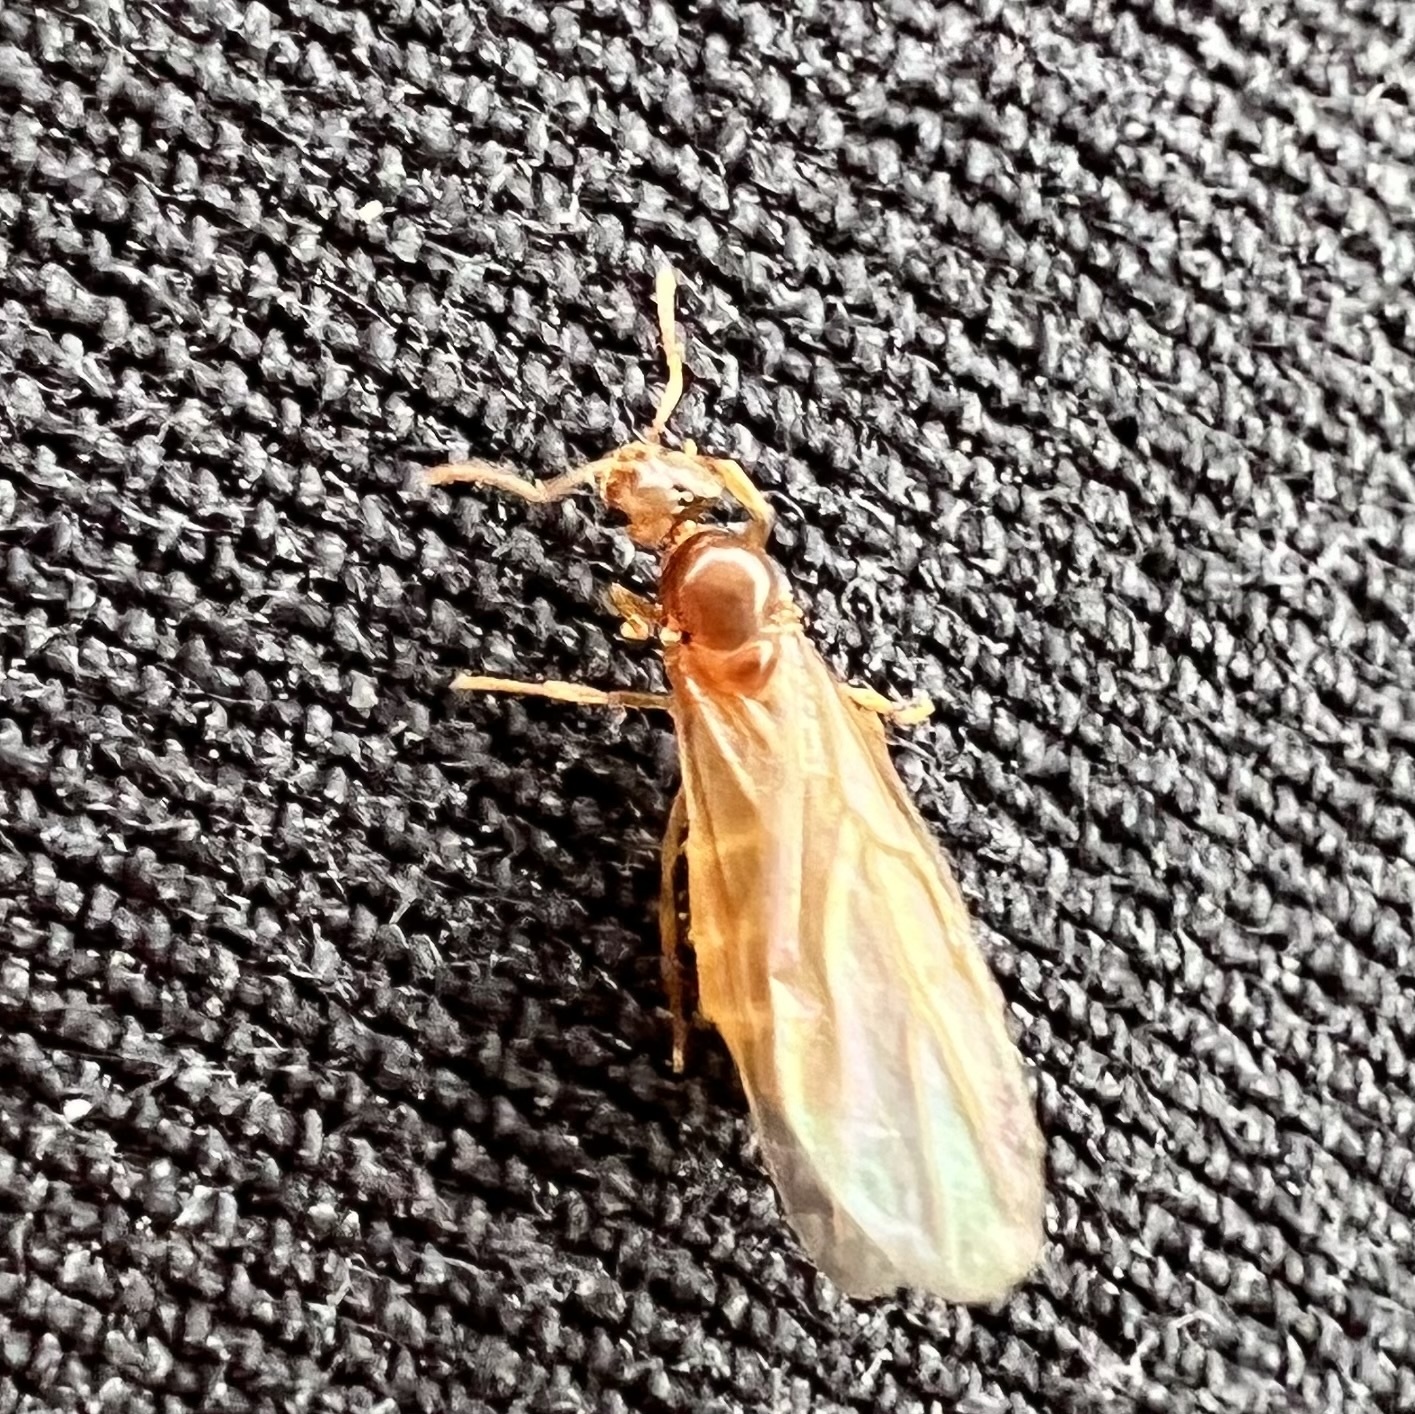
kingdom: Animalia
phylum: Arthropoda
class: Insecta
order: Hymenoptera
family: Formicidae
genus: Brachymyrmex
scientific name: Brachymyrmex depilis
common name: Hairless rover ant
